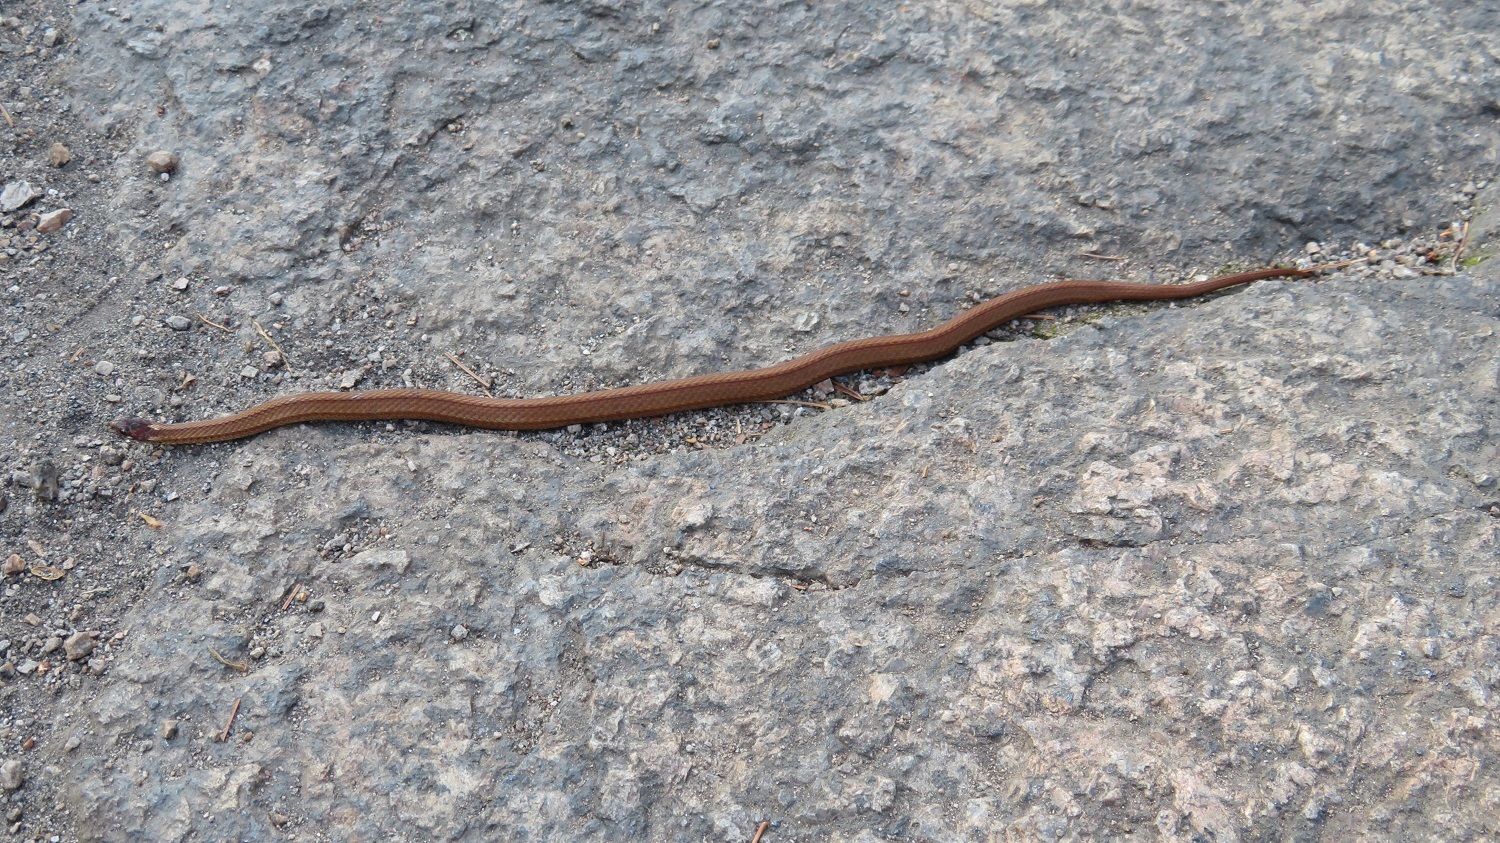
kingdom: Animalia
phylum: Chordata
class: Squamata
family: Colubridae
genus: Storeria
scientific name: Storeria occipitomaculata
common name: Redbelly snake
